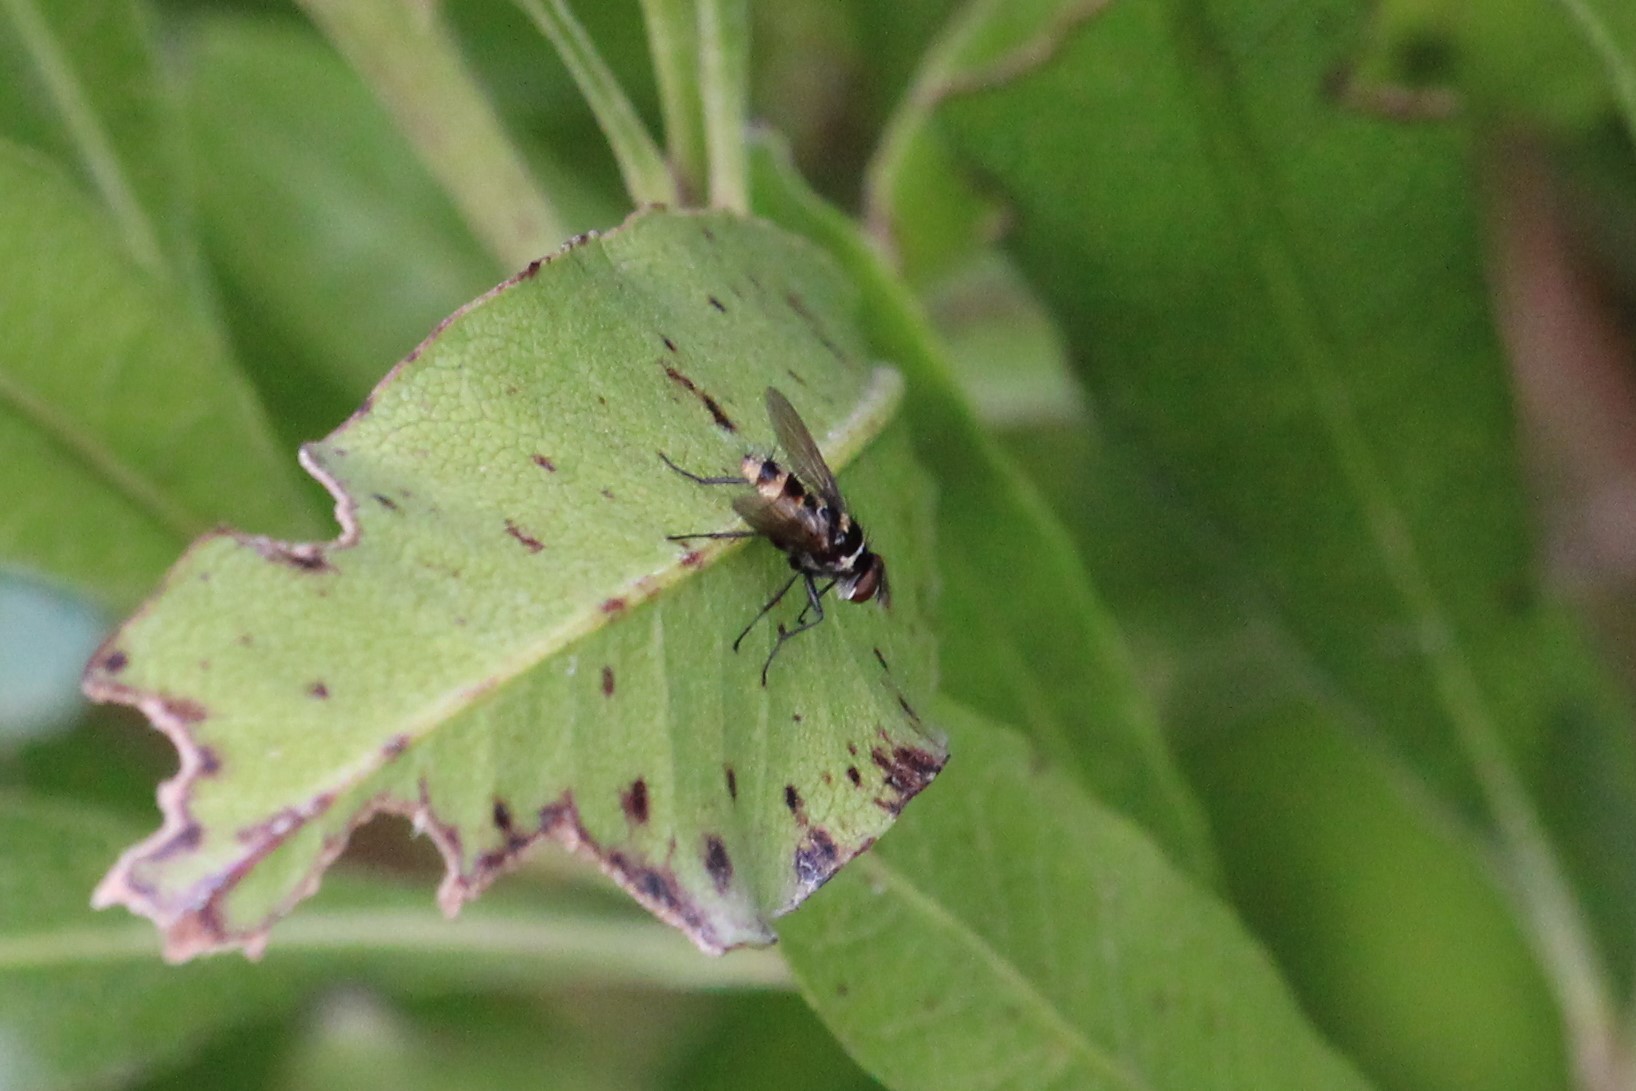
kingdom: Animalia
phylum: Arthropoda
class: Insecta
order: Diptera
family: Tachinidae
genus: Trigonospila
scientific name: Trigonospila brevifacies
